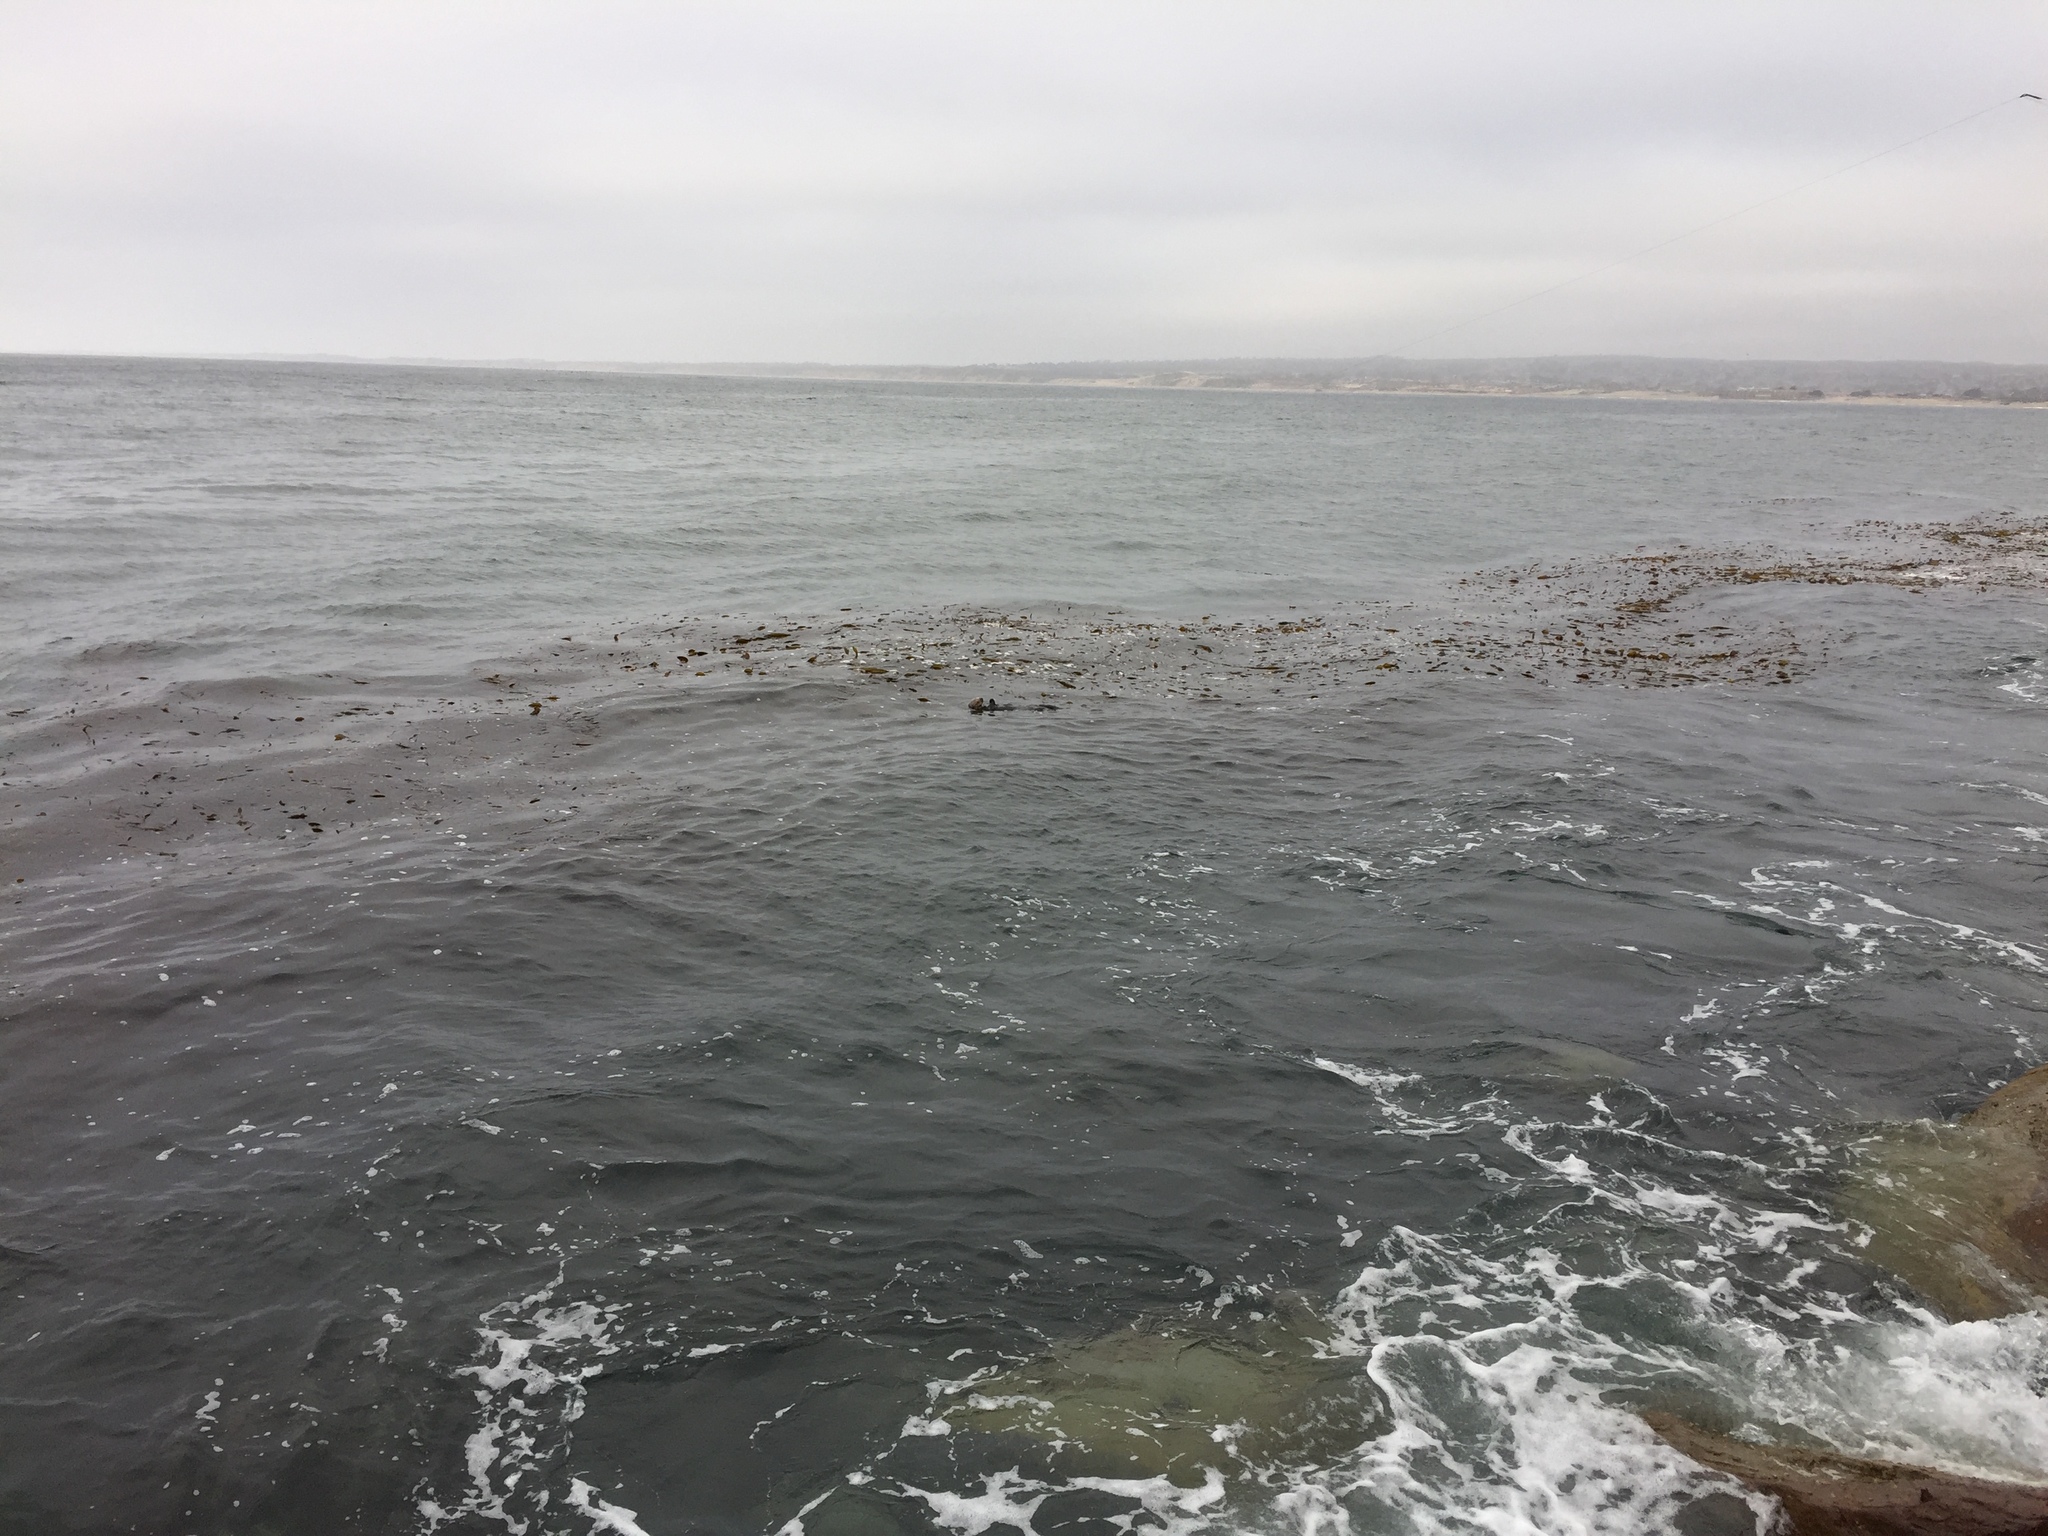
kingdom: Animalia
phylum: Chordata
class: Mammalia
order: Carnivora
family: Mustelidae
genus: Enhydra
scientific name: Enhydra lutris
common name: Sea otter
